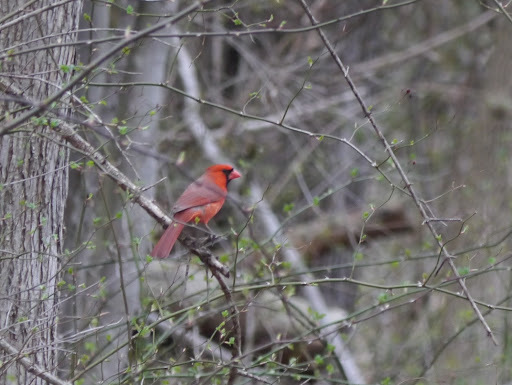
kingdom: Animalia
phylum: Chordata
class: Aves
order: Passeriformes
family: Cardinalidae
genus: Cardinalis
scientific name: Cardinalis cardinalis
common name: Northern cardinal
